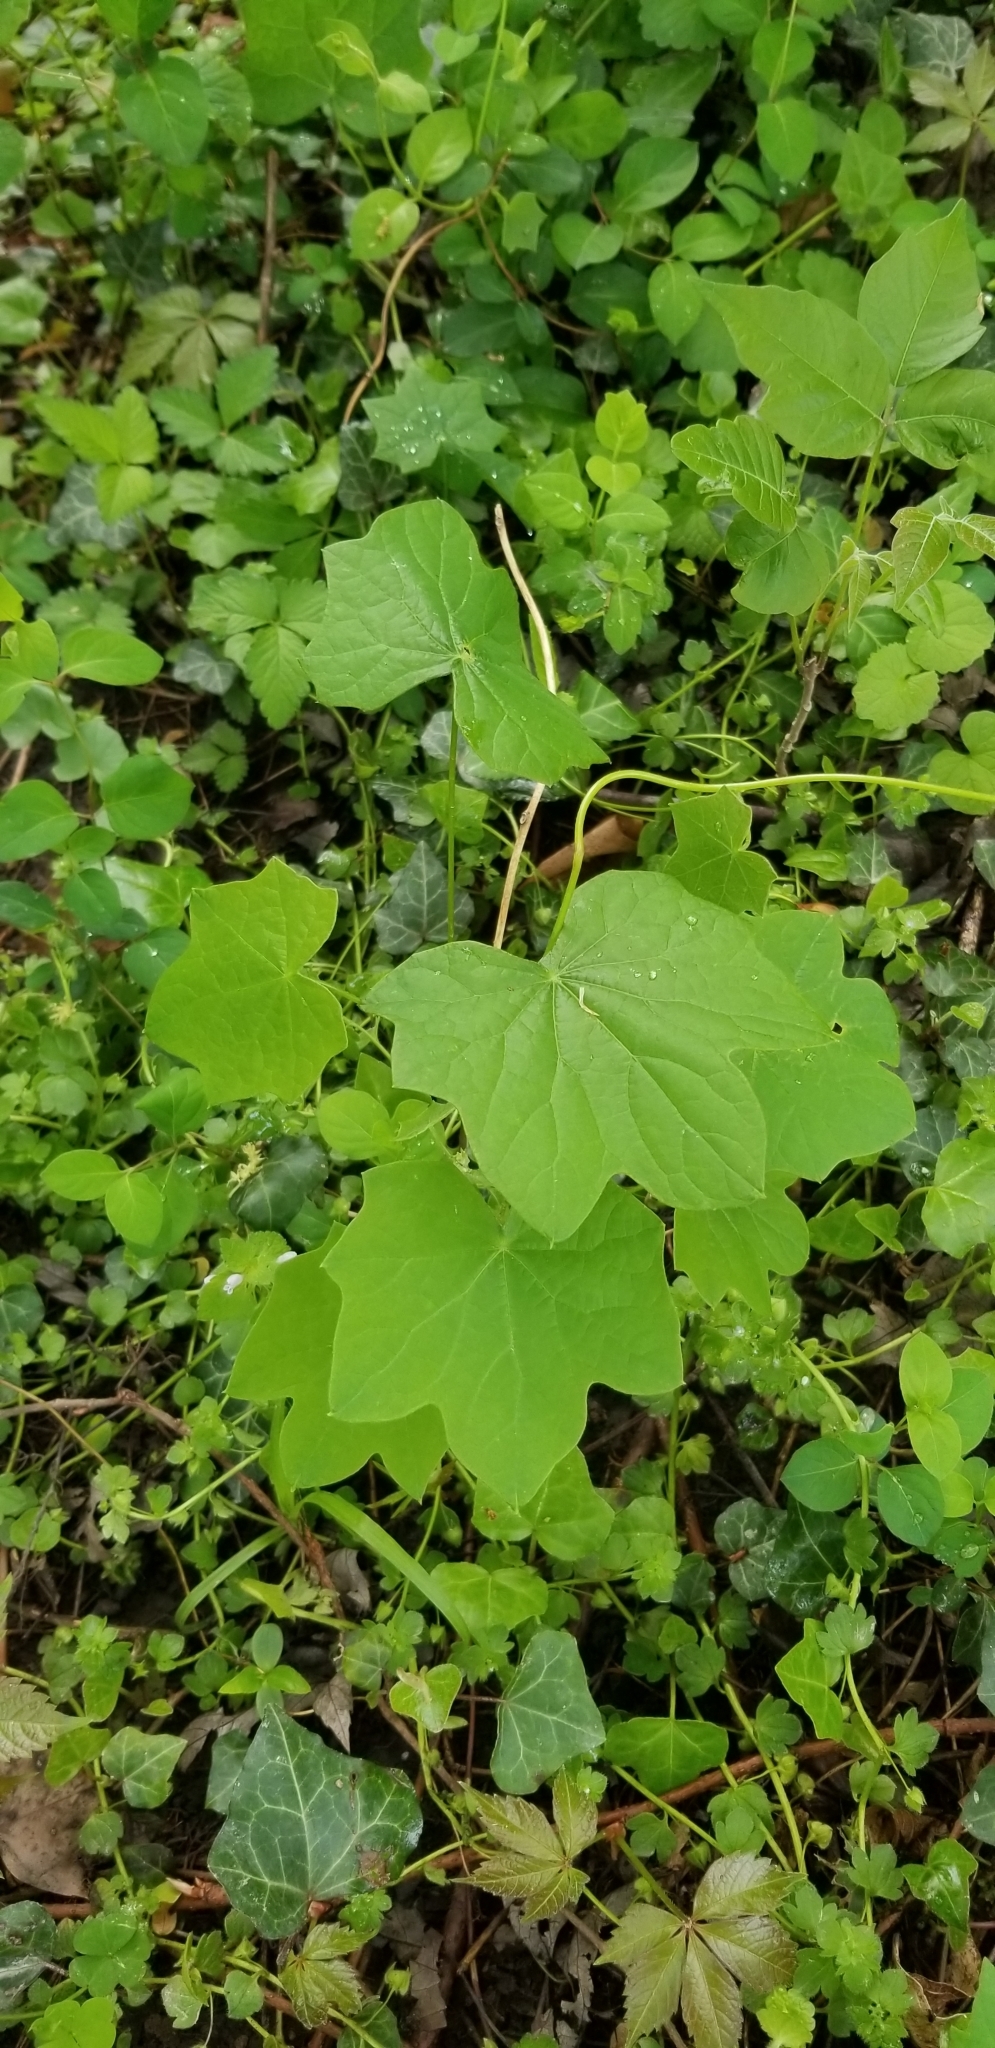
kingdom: Plantae
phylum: Tracheophyta
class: Magnoliopsida
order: Ranunculales
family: Menispermaceae
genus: Menispermum
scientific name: Menispermum canadense
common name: Moonseed
